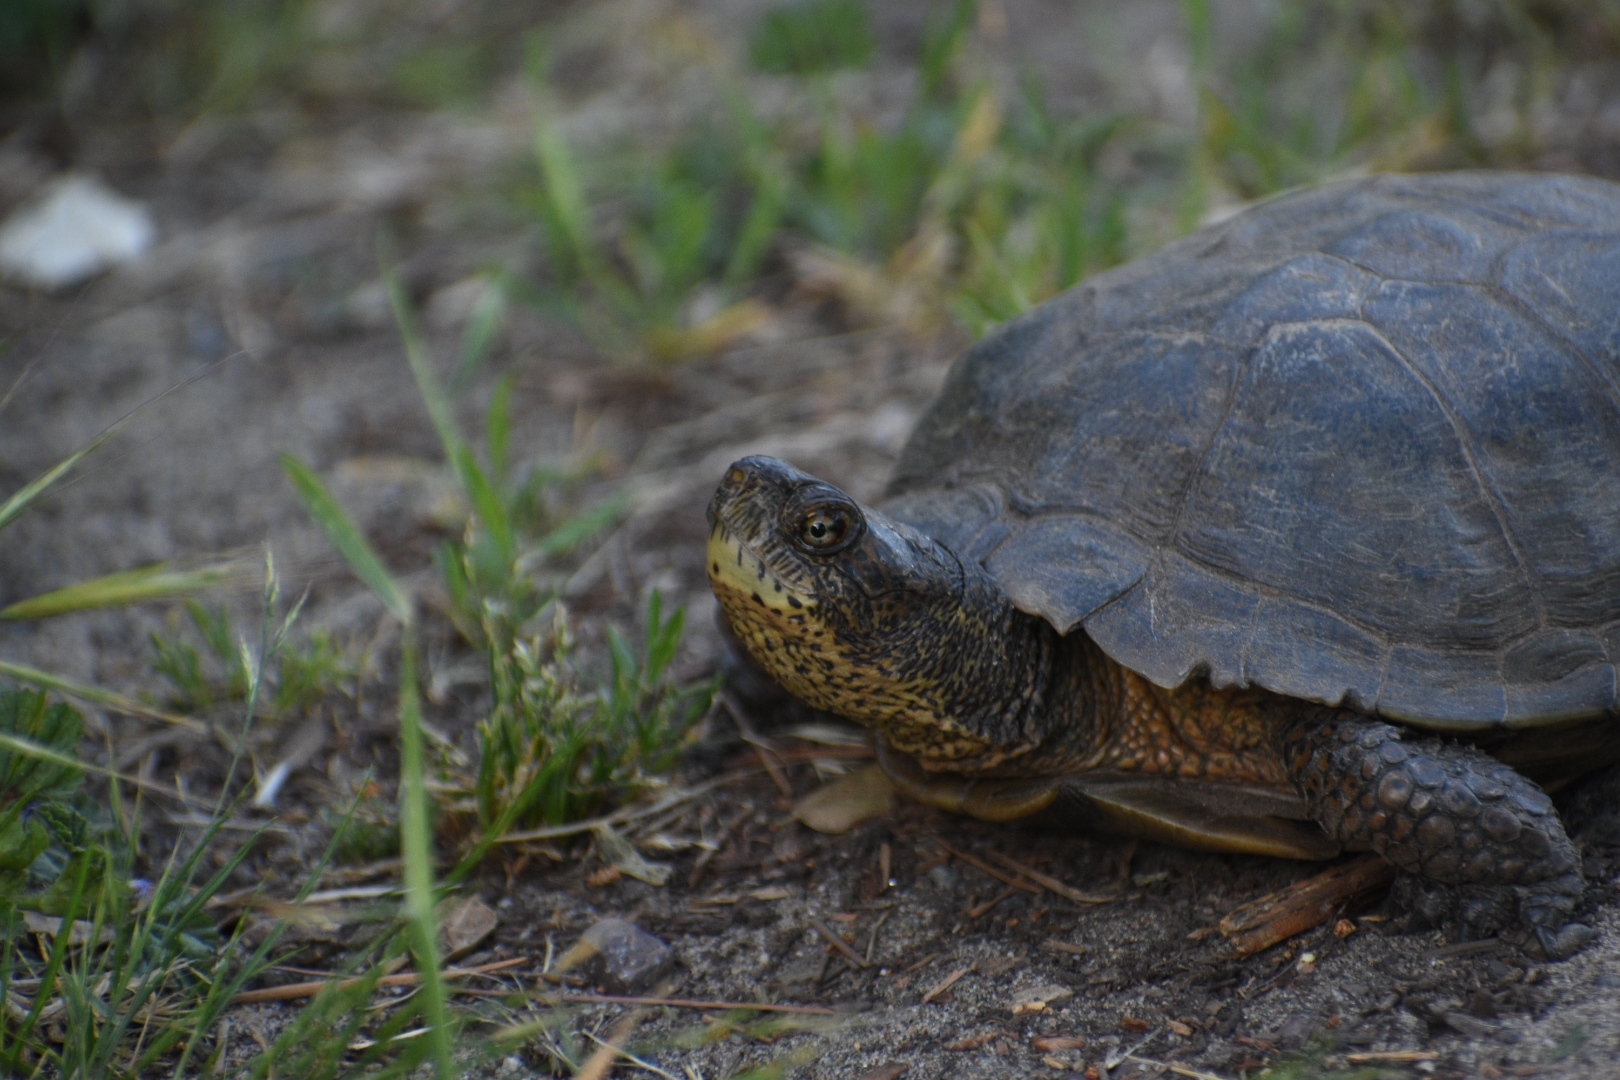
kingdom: Animalia
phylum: Chordata
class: Testudines
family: Emydidae
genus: Actinemys
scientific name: Actinemys marmorata
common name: Western pond turtle
